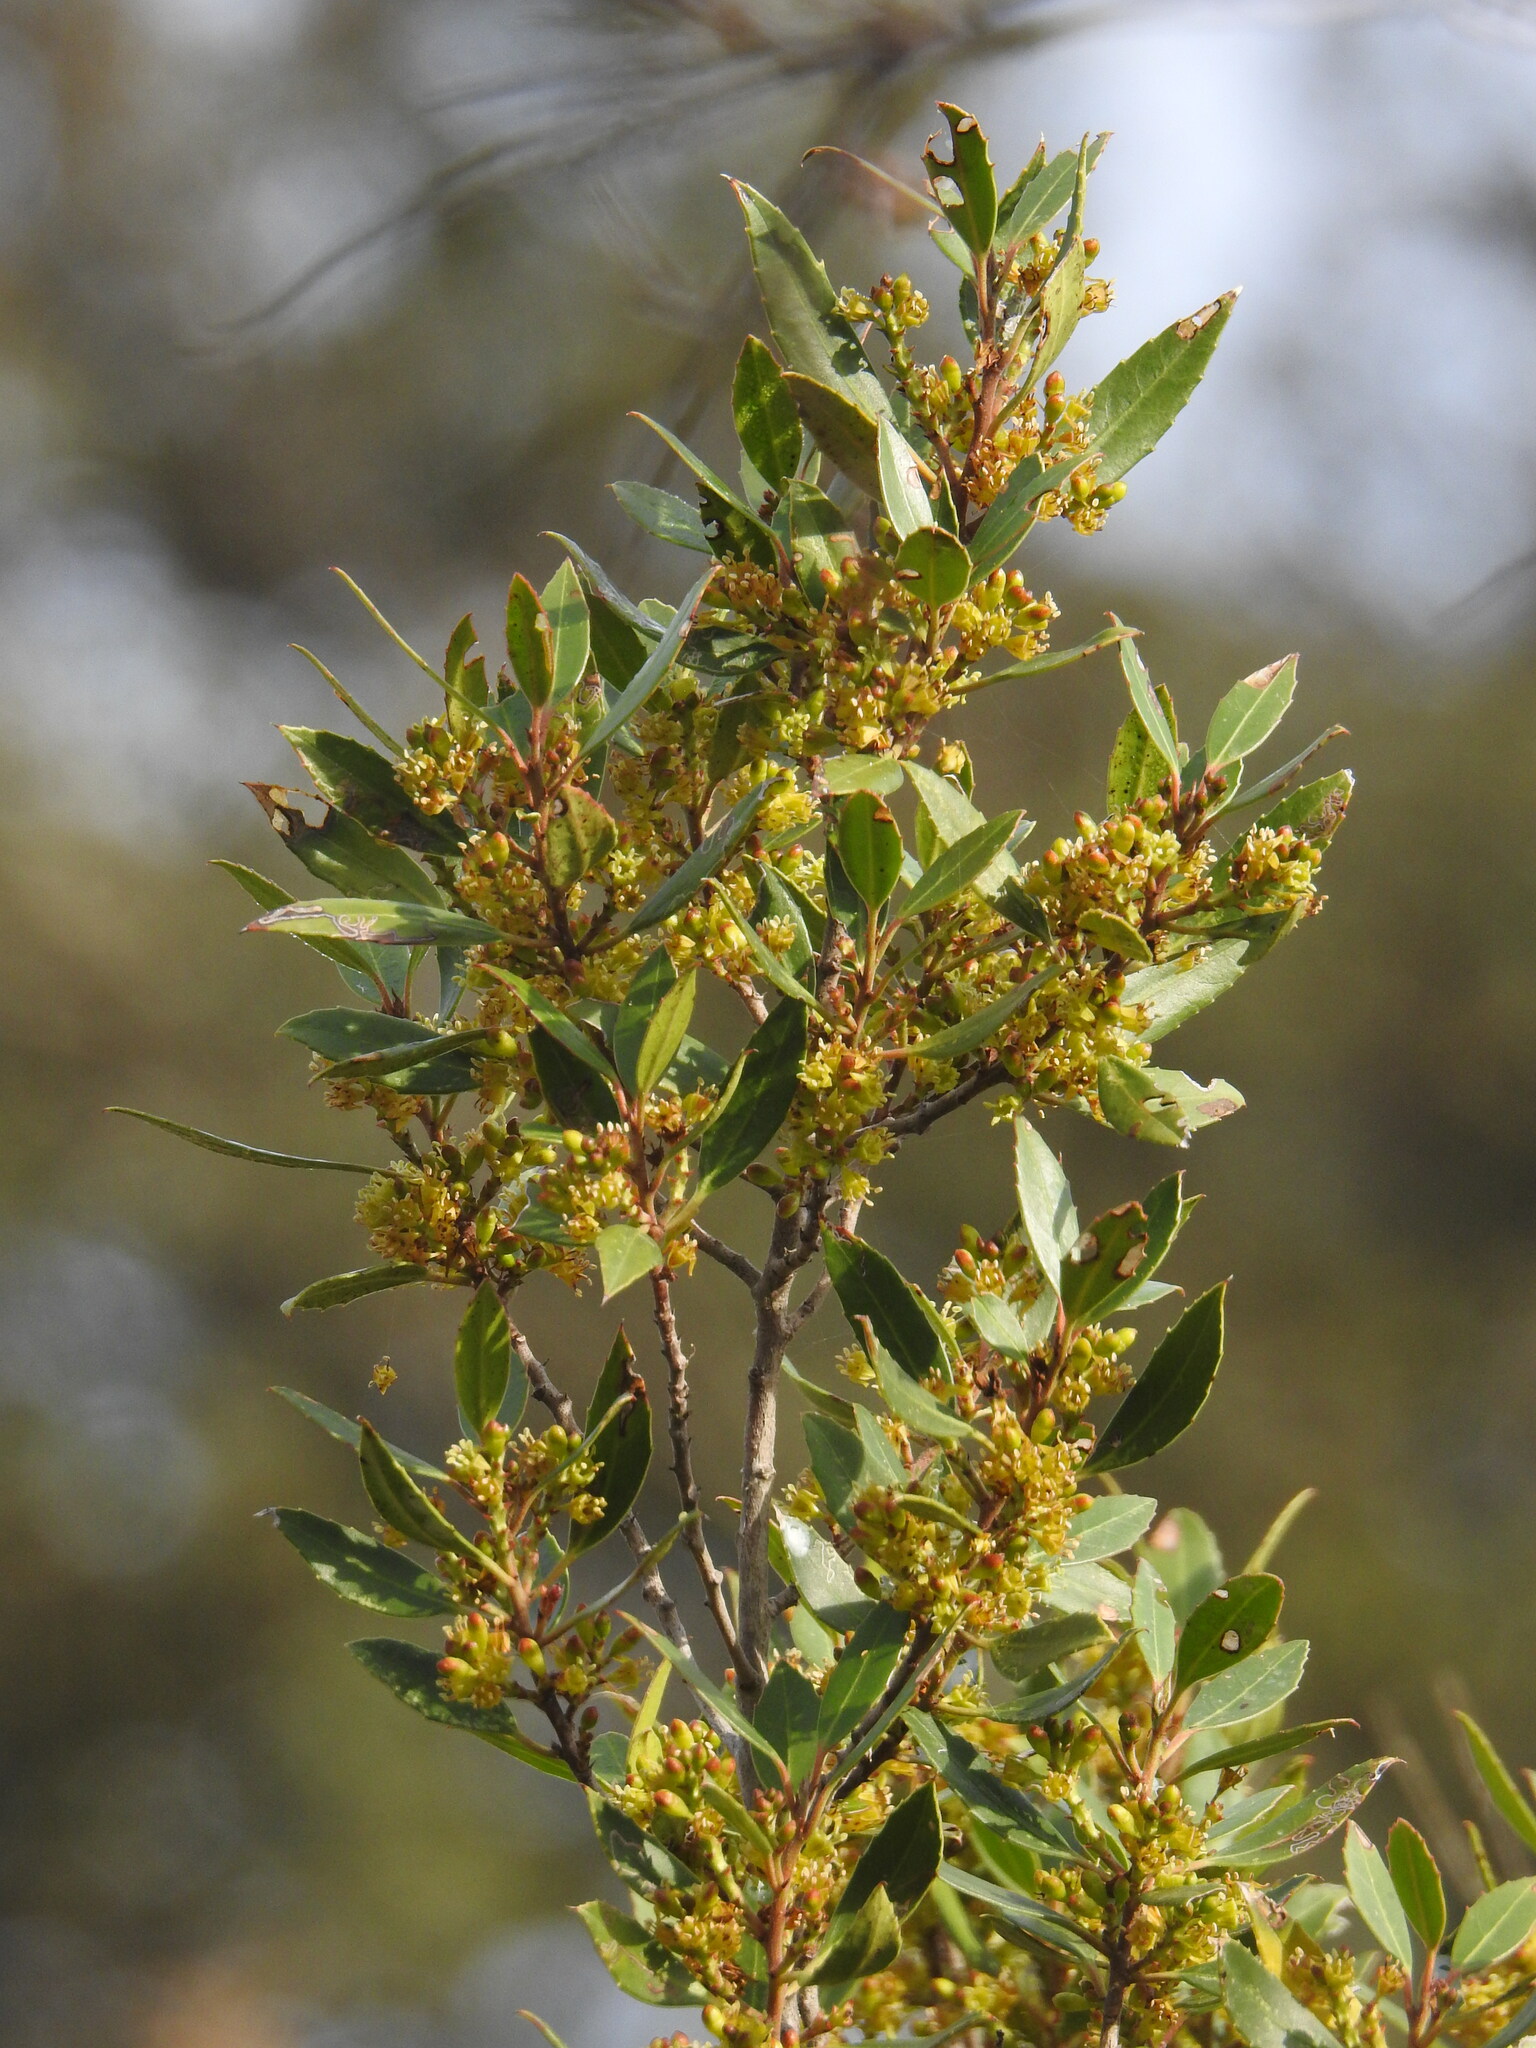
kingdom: Plantae
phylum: Tracheophyta
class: Magnoliopsida
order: Rosales
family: Rhamnaceae
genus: Rhamnus
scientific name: Rhamnus alaternus
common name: Mediterranean buckthorn
